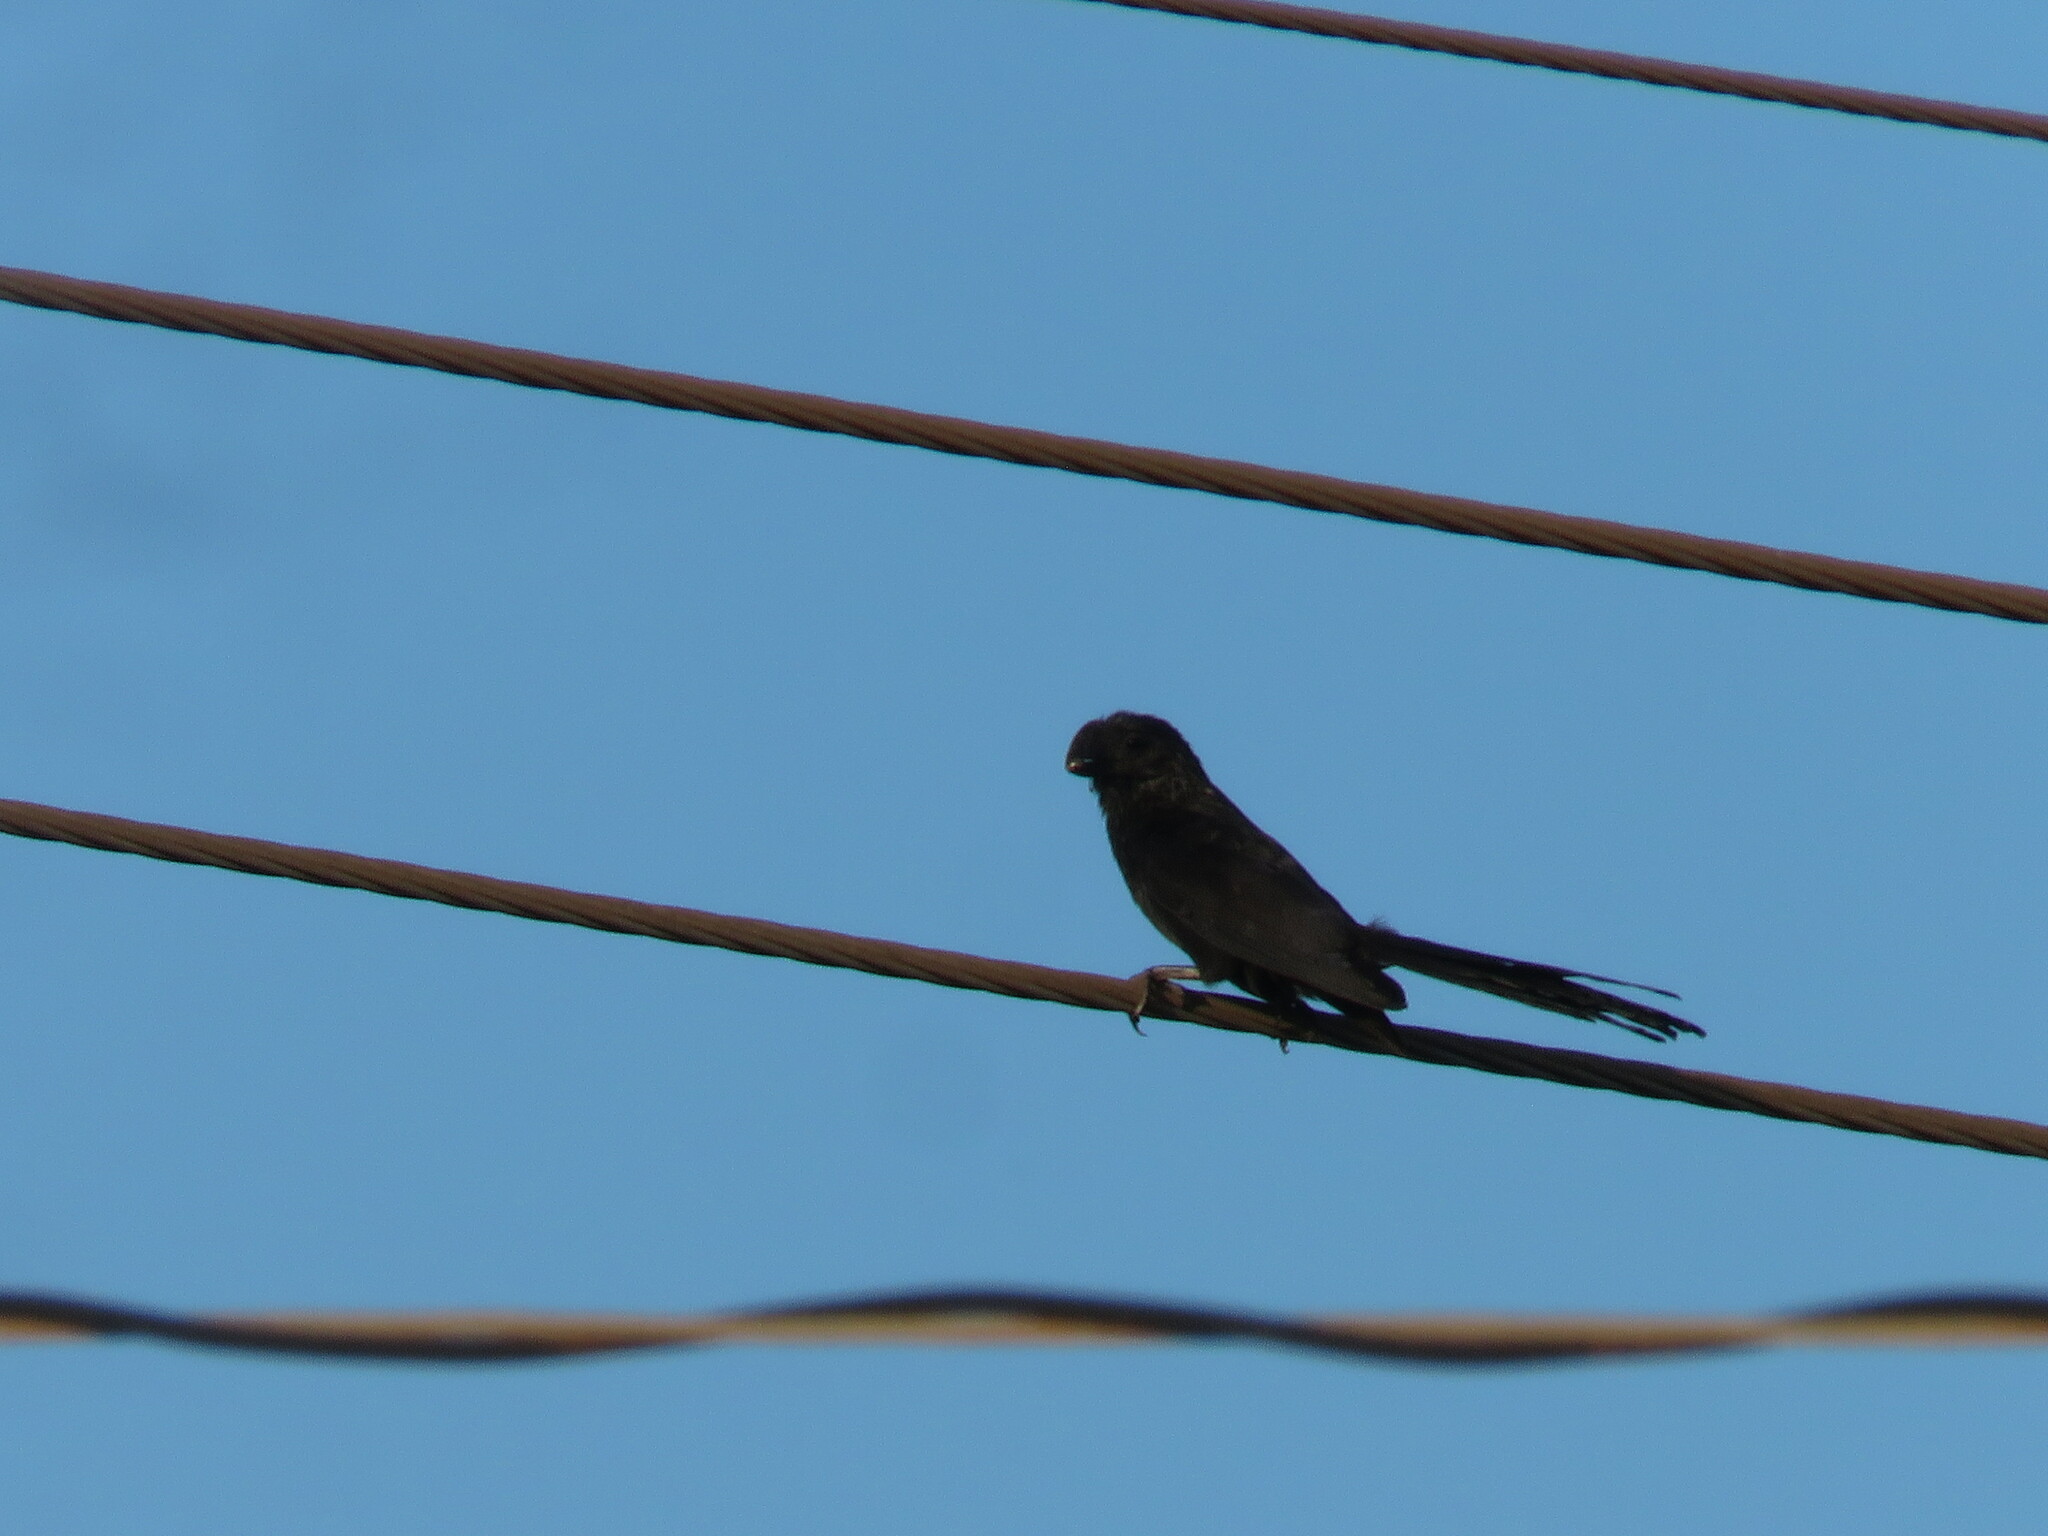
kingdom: Animalia
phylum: Chordata
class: Aves
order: Cuculiformes
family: Cuculidae
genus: Crotophaga
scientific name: Crotophaga ani
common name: Smooth-billed ani
